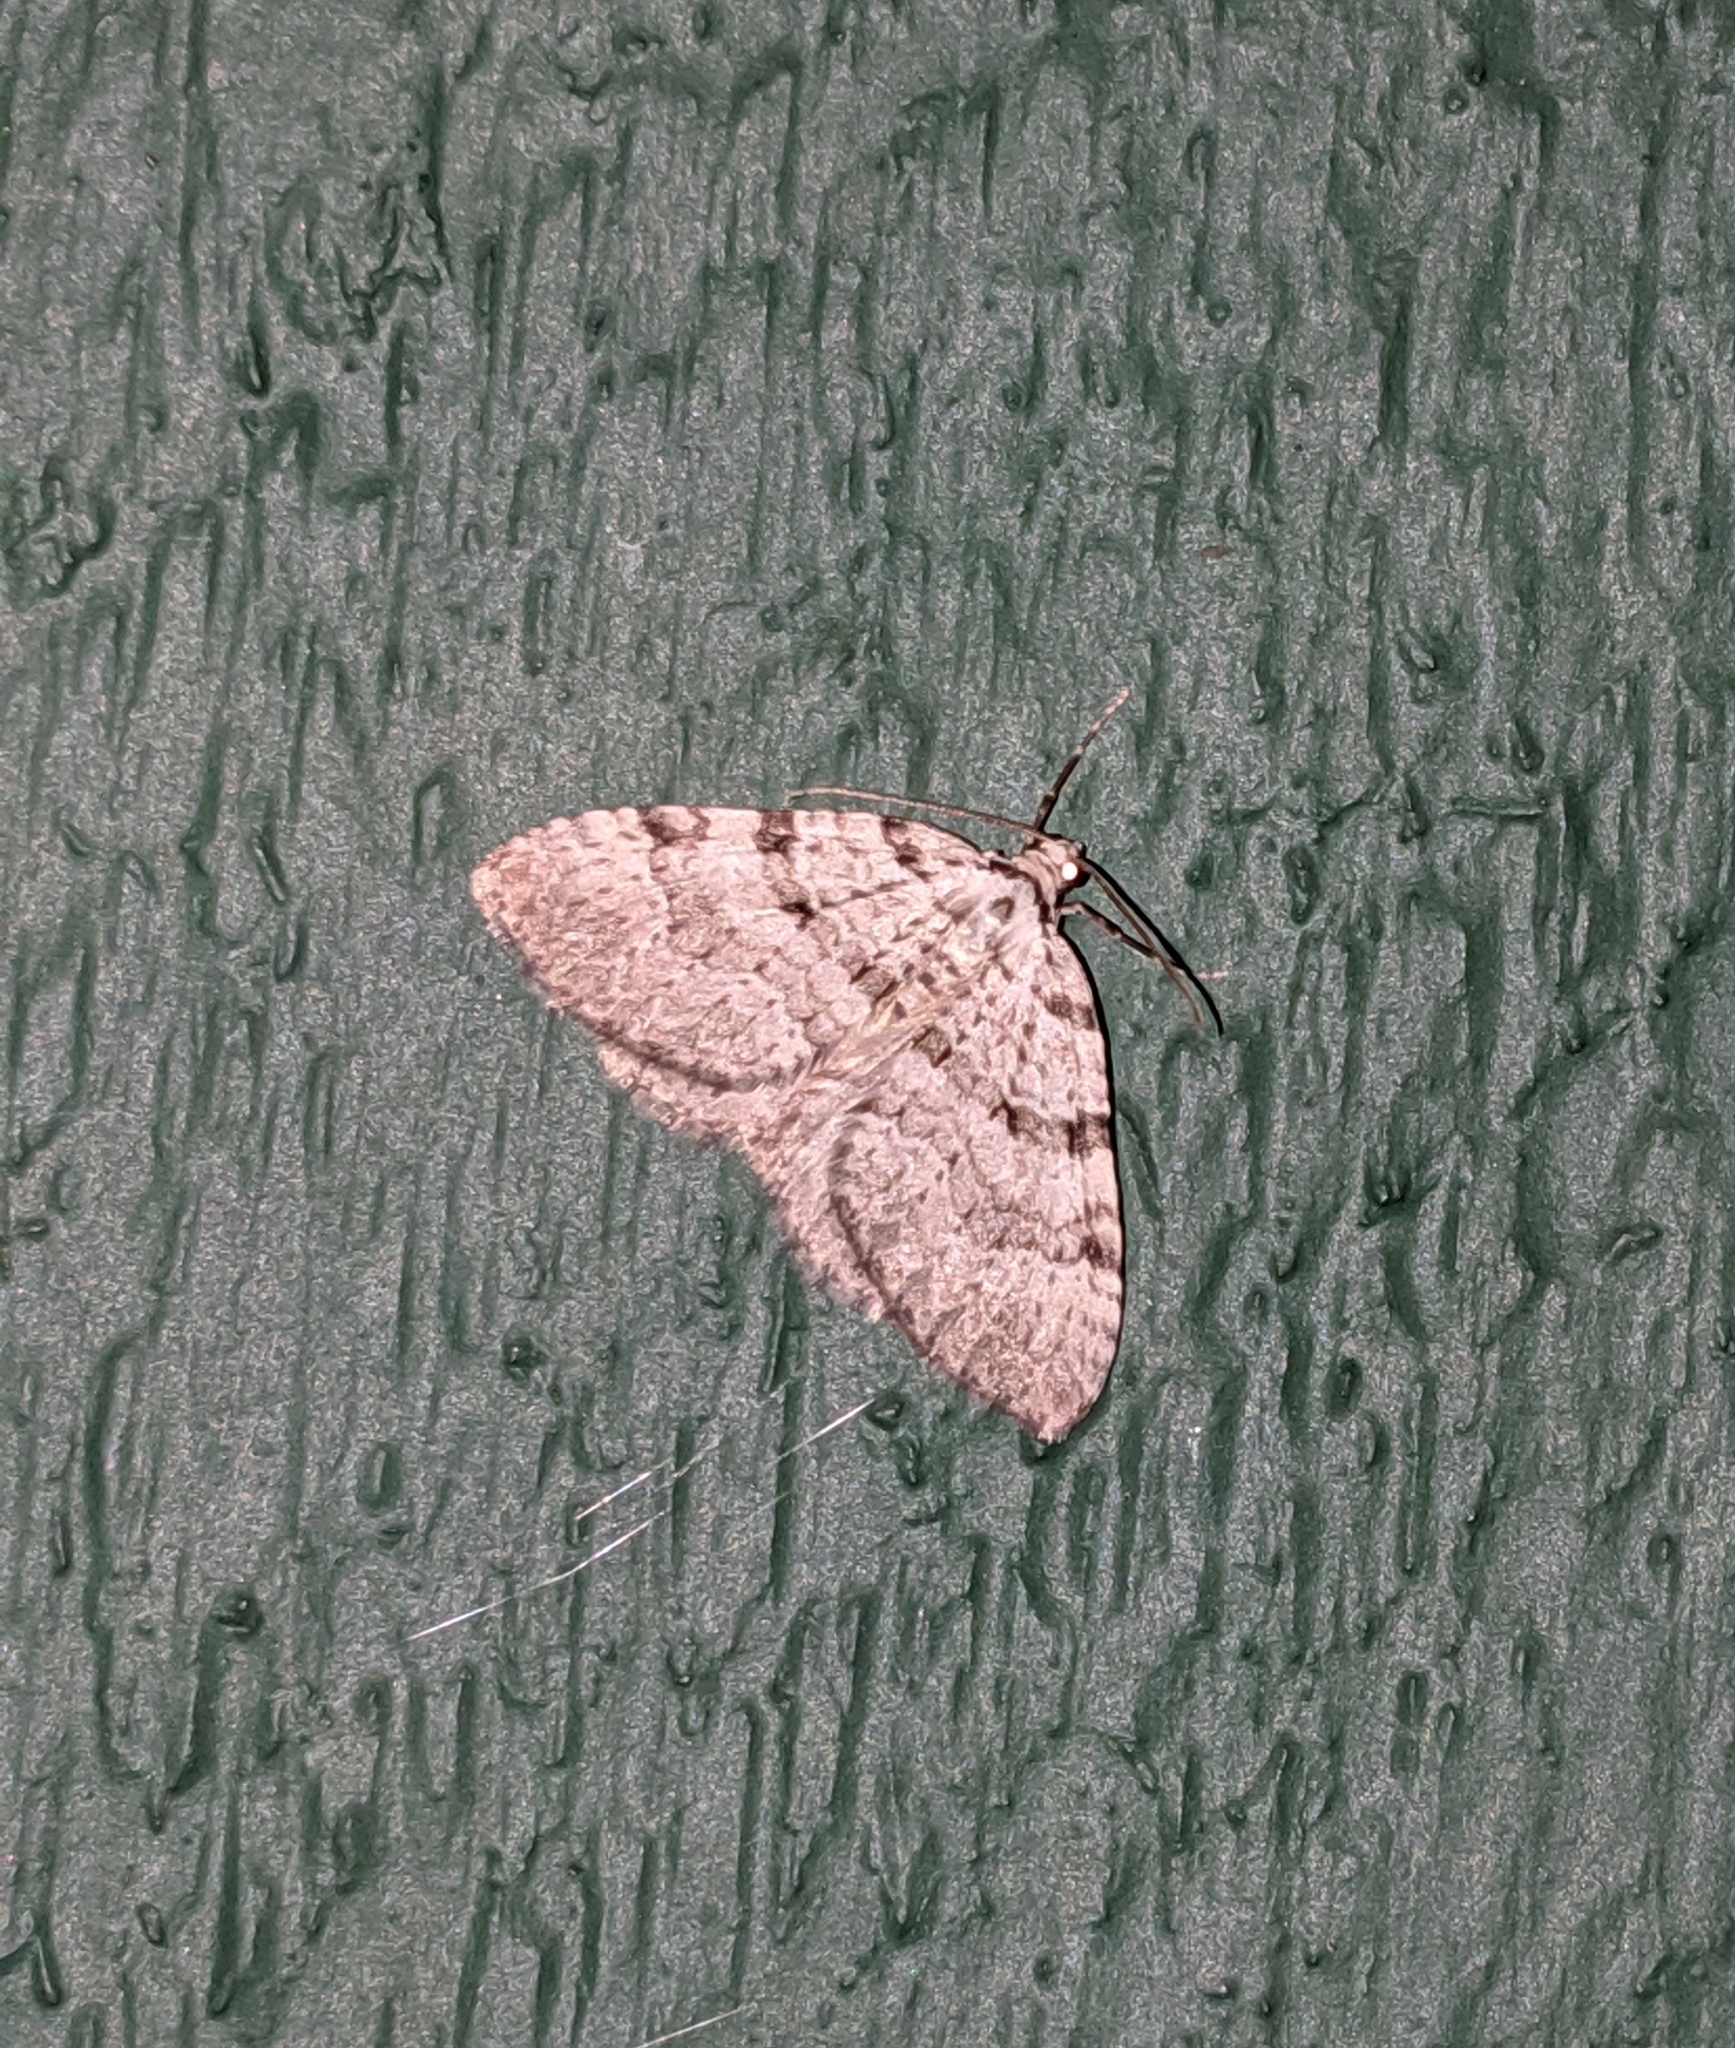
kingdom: Animalia
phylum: Arthropoda
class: Insecta
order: Lepidoptera
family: Geometridae
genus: Perizoma
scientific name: Perizoma curvilinea
